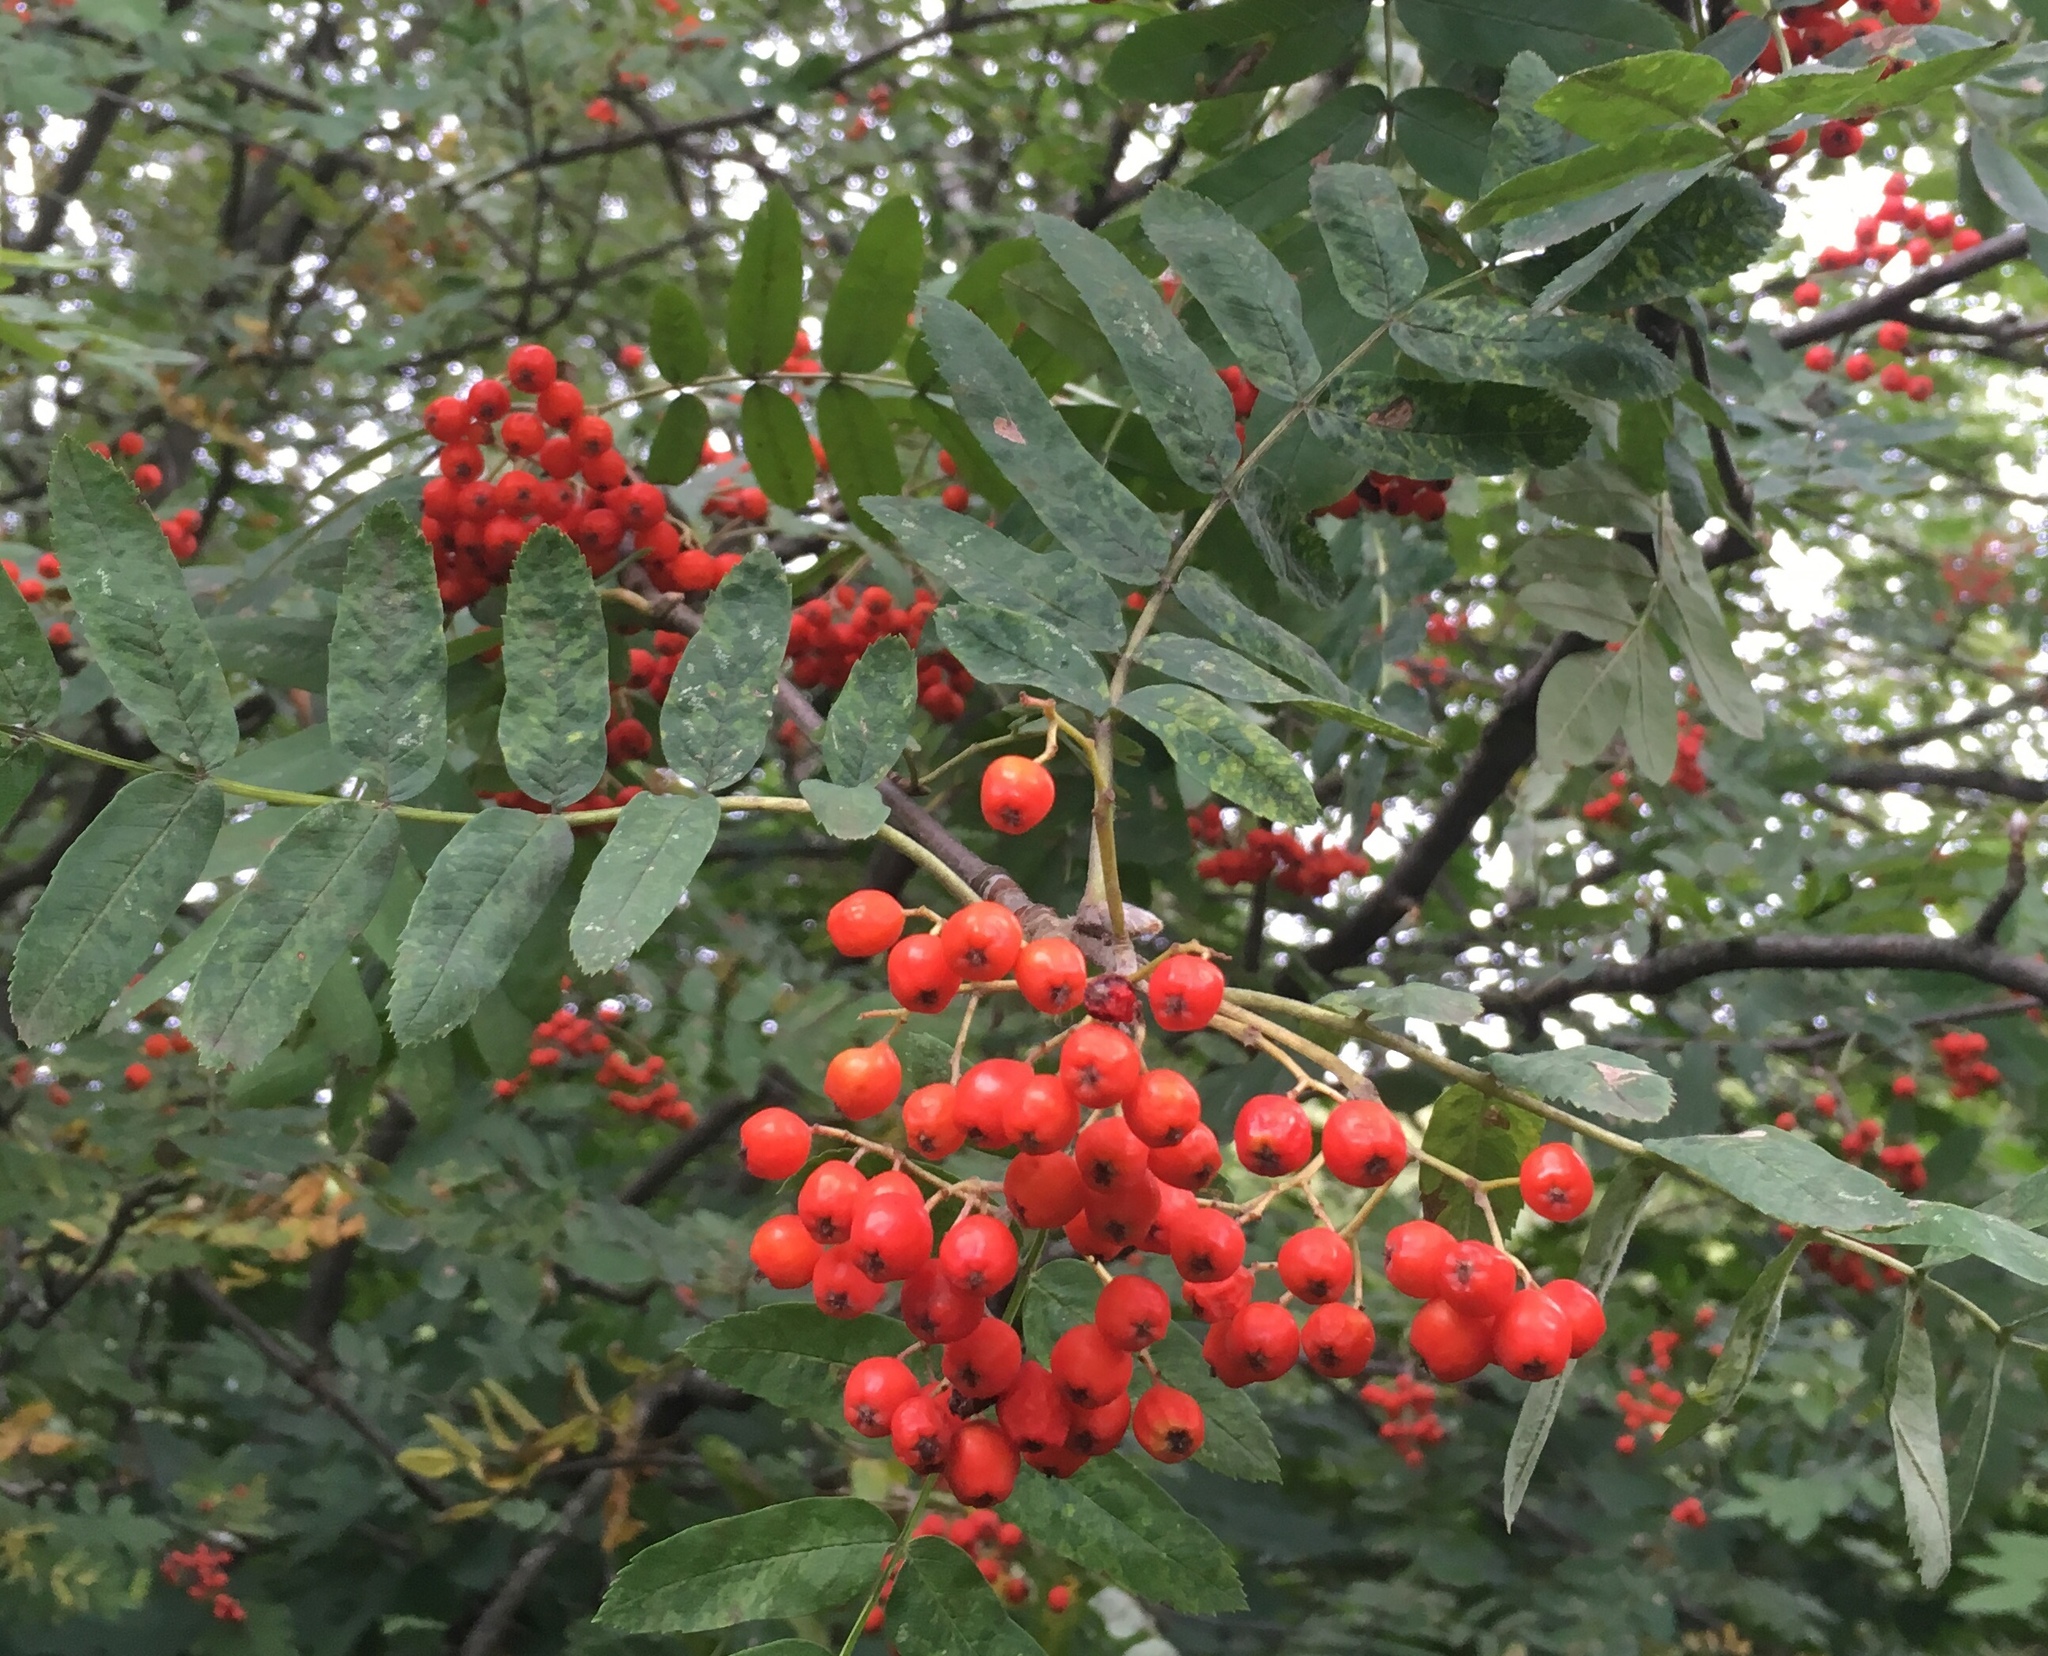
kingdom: Plantae
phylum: Tracheophyta
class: Magnoliopsida
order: Rosales
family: Rosaceae
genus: Sorbus
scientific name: Sorbus aucuparia
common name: Rowan
